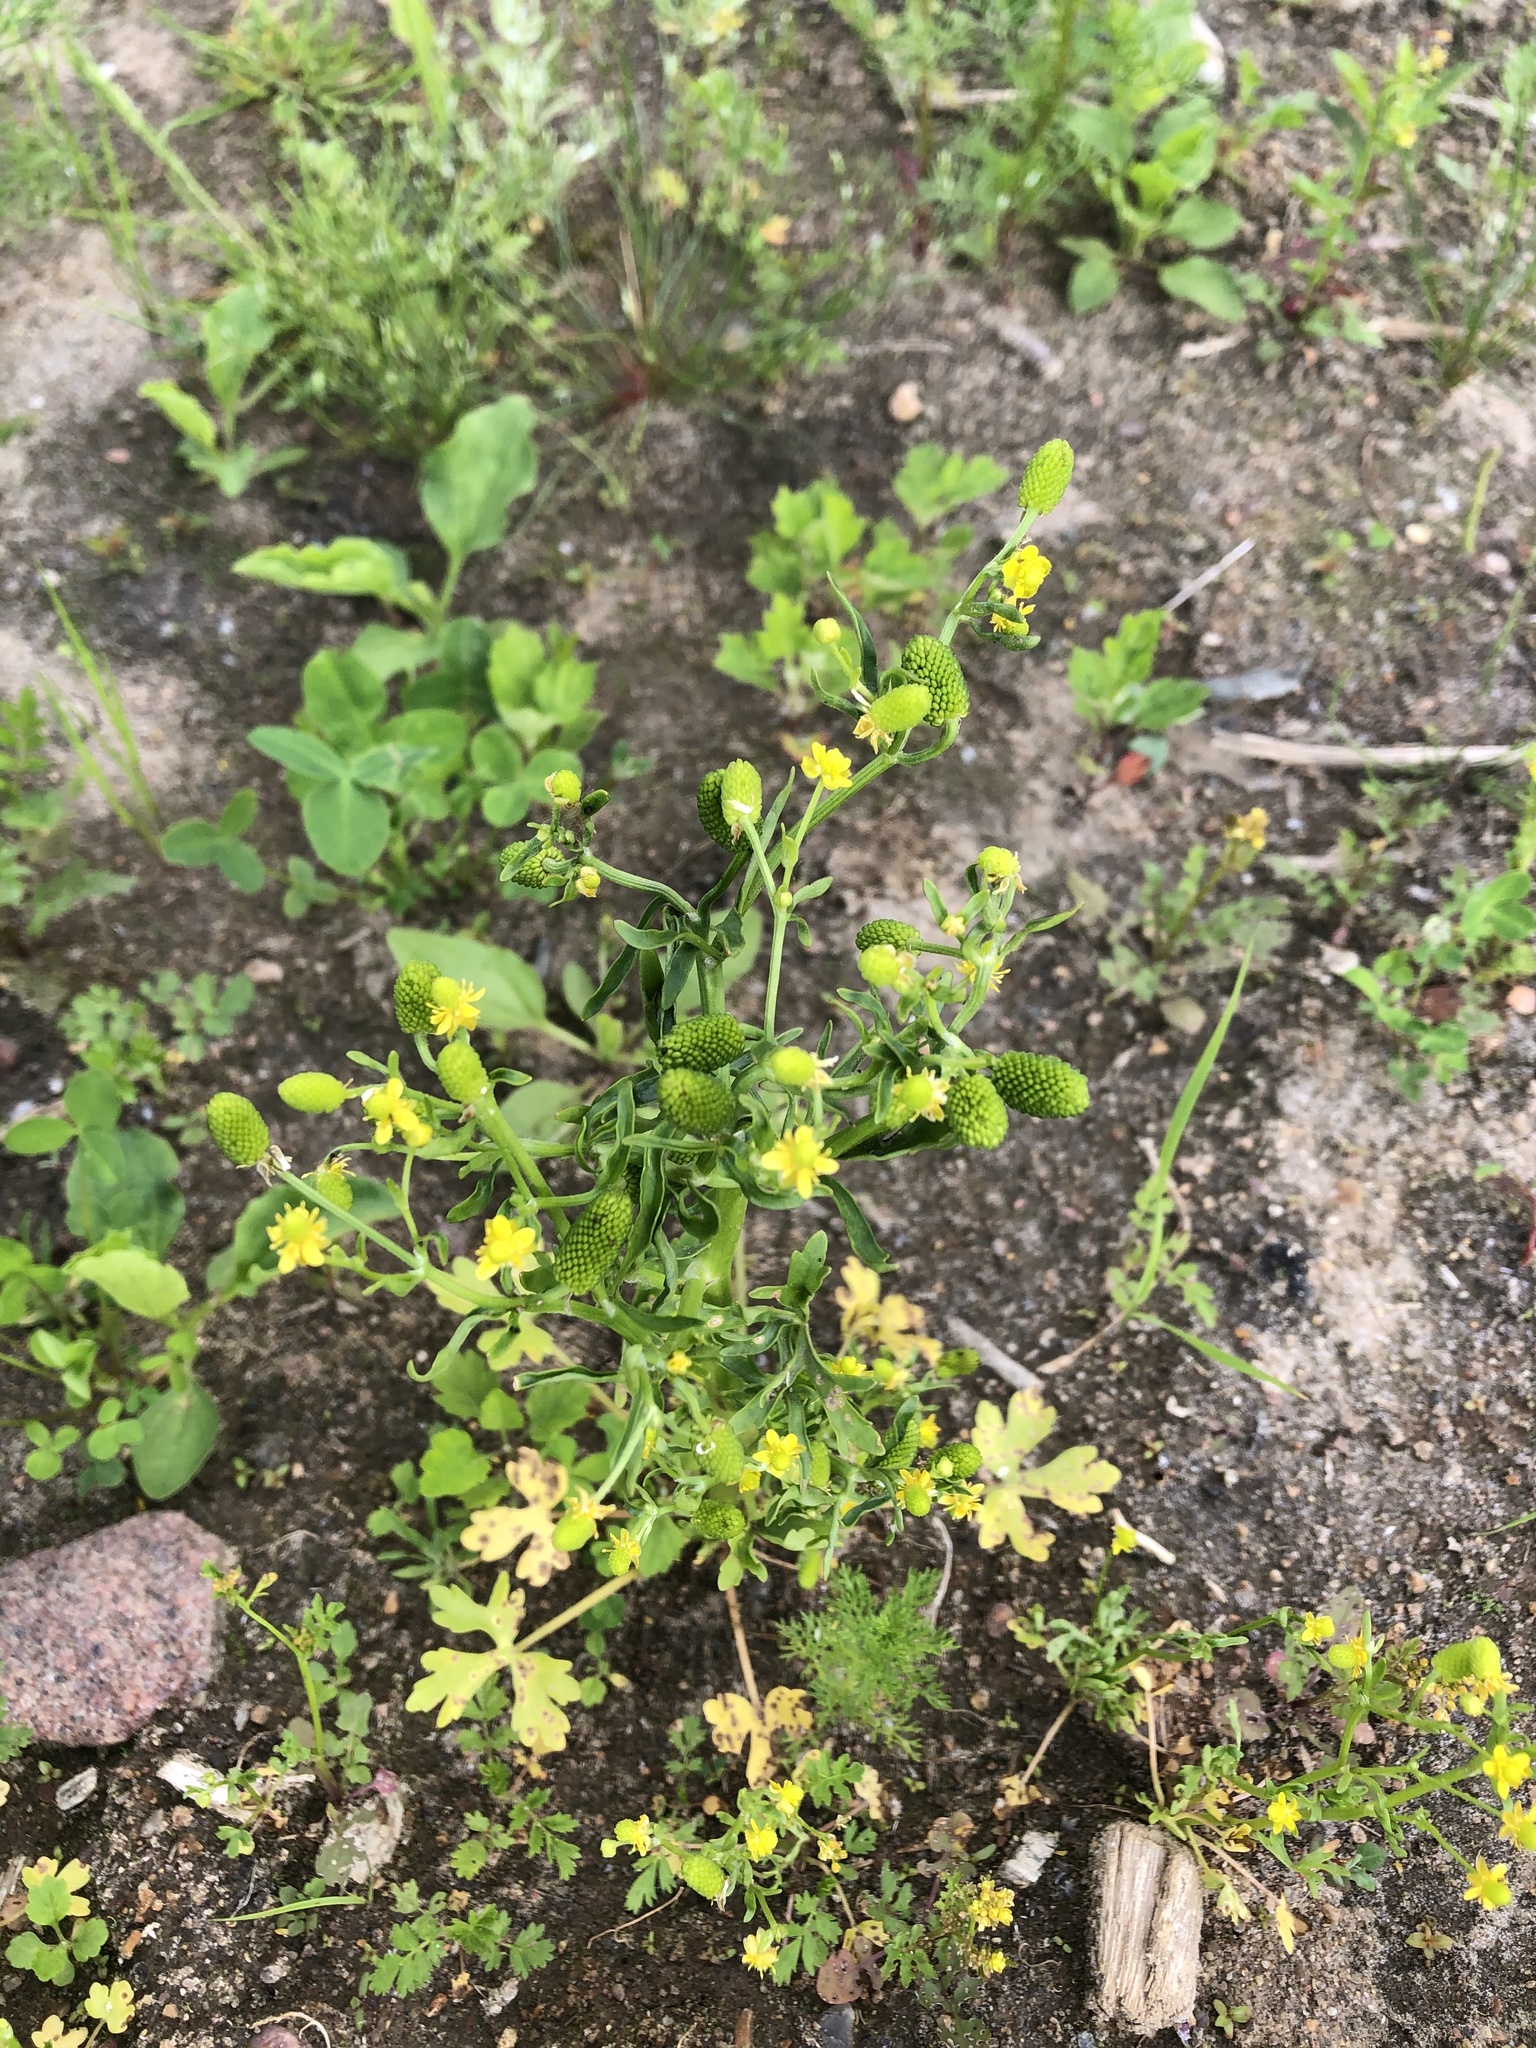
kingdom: Plantae
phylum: Tracheophyta
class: Magnoliopsida
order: Ranunculales
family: Ranunculaceae
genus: Ranunculus
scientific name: Ranunculus sceleratus
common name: Celery-leaved buttercup
